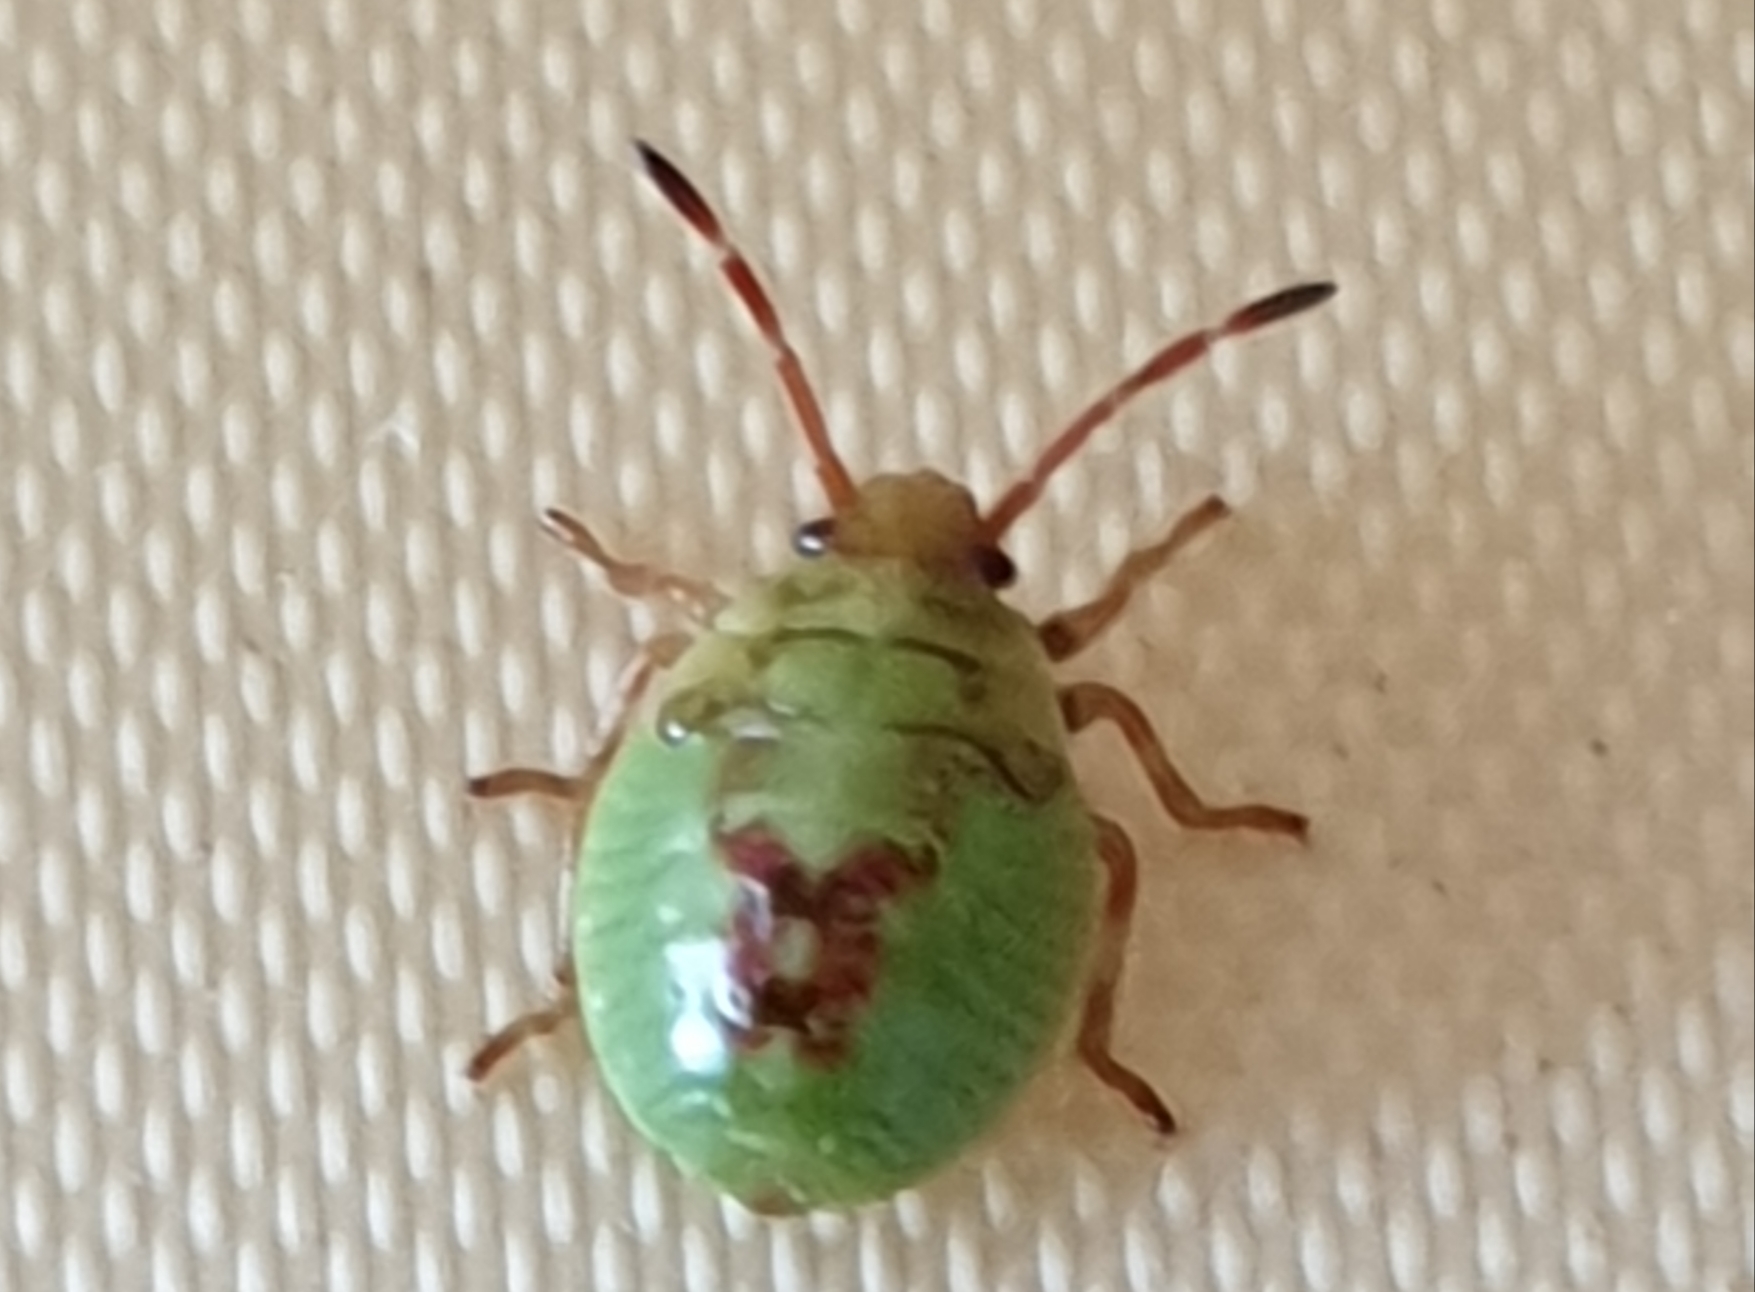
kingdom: Animalia
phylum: Arthropoda
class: Insecta
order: Hemiptera
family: Acanthosomatidae
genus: Elasmostethus
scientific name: Elasmostethus interstinctus
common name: Birch shieldbug
